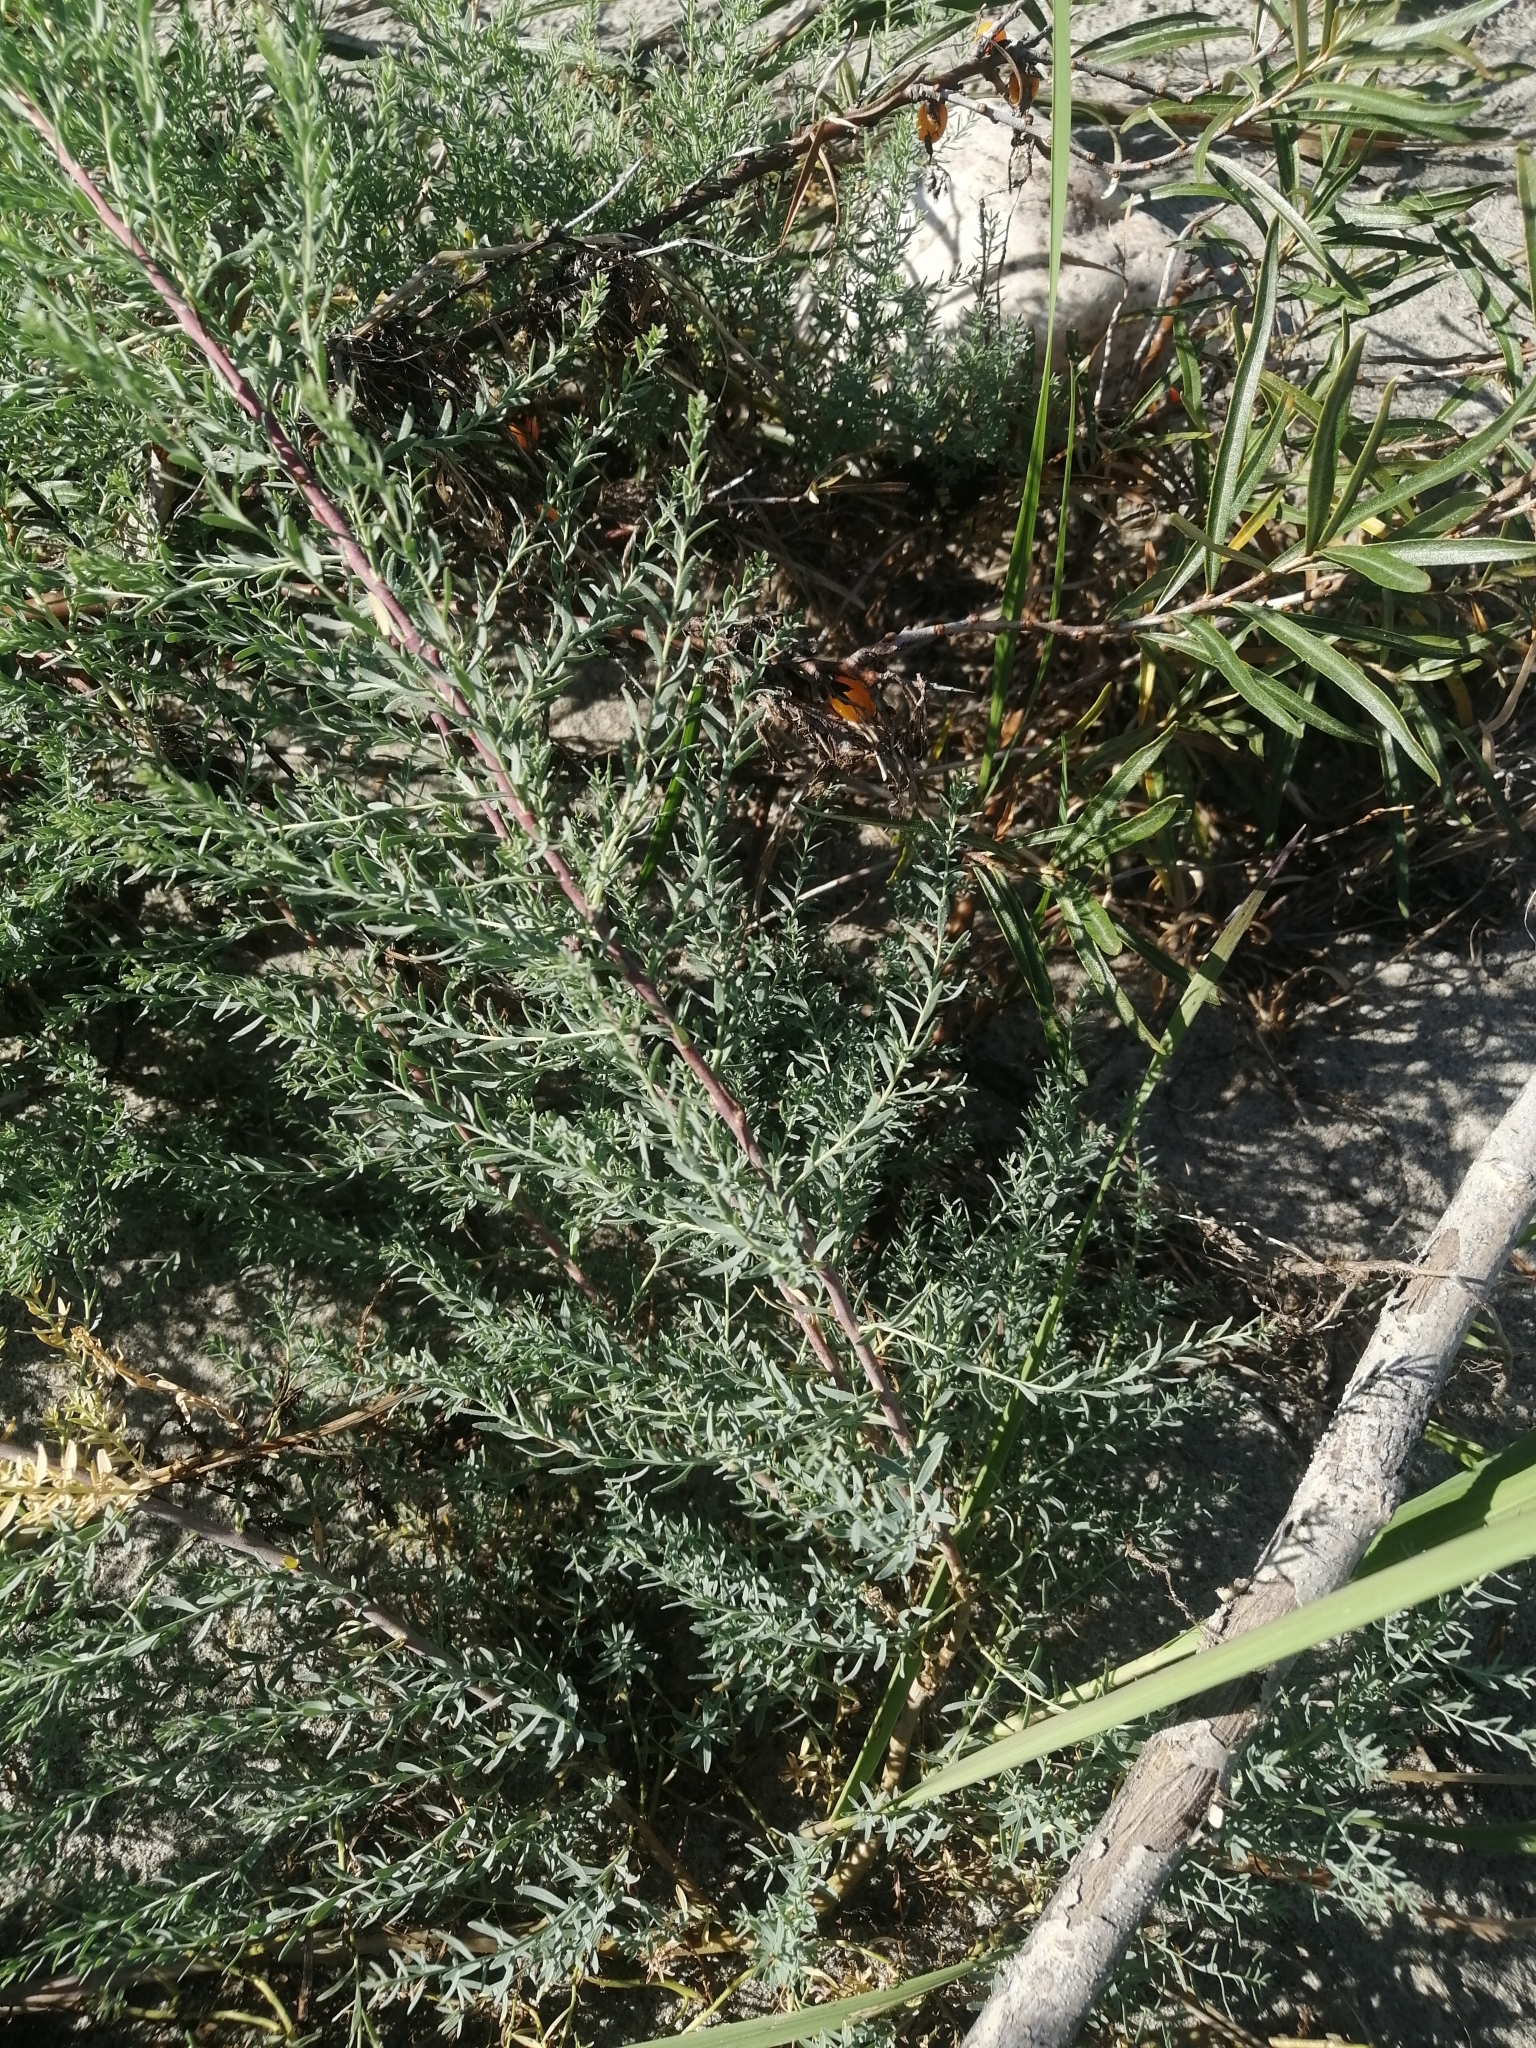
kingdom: Plantae
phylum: Tracheophyta
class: Magnoliopsida
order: Caryophyllales
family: Tamaricaceae
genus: Myricaria
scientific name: Myricaria longifolia
